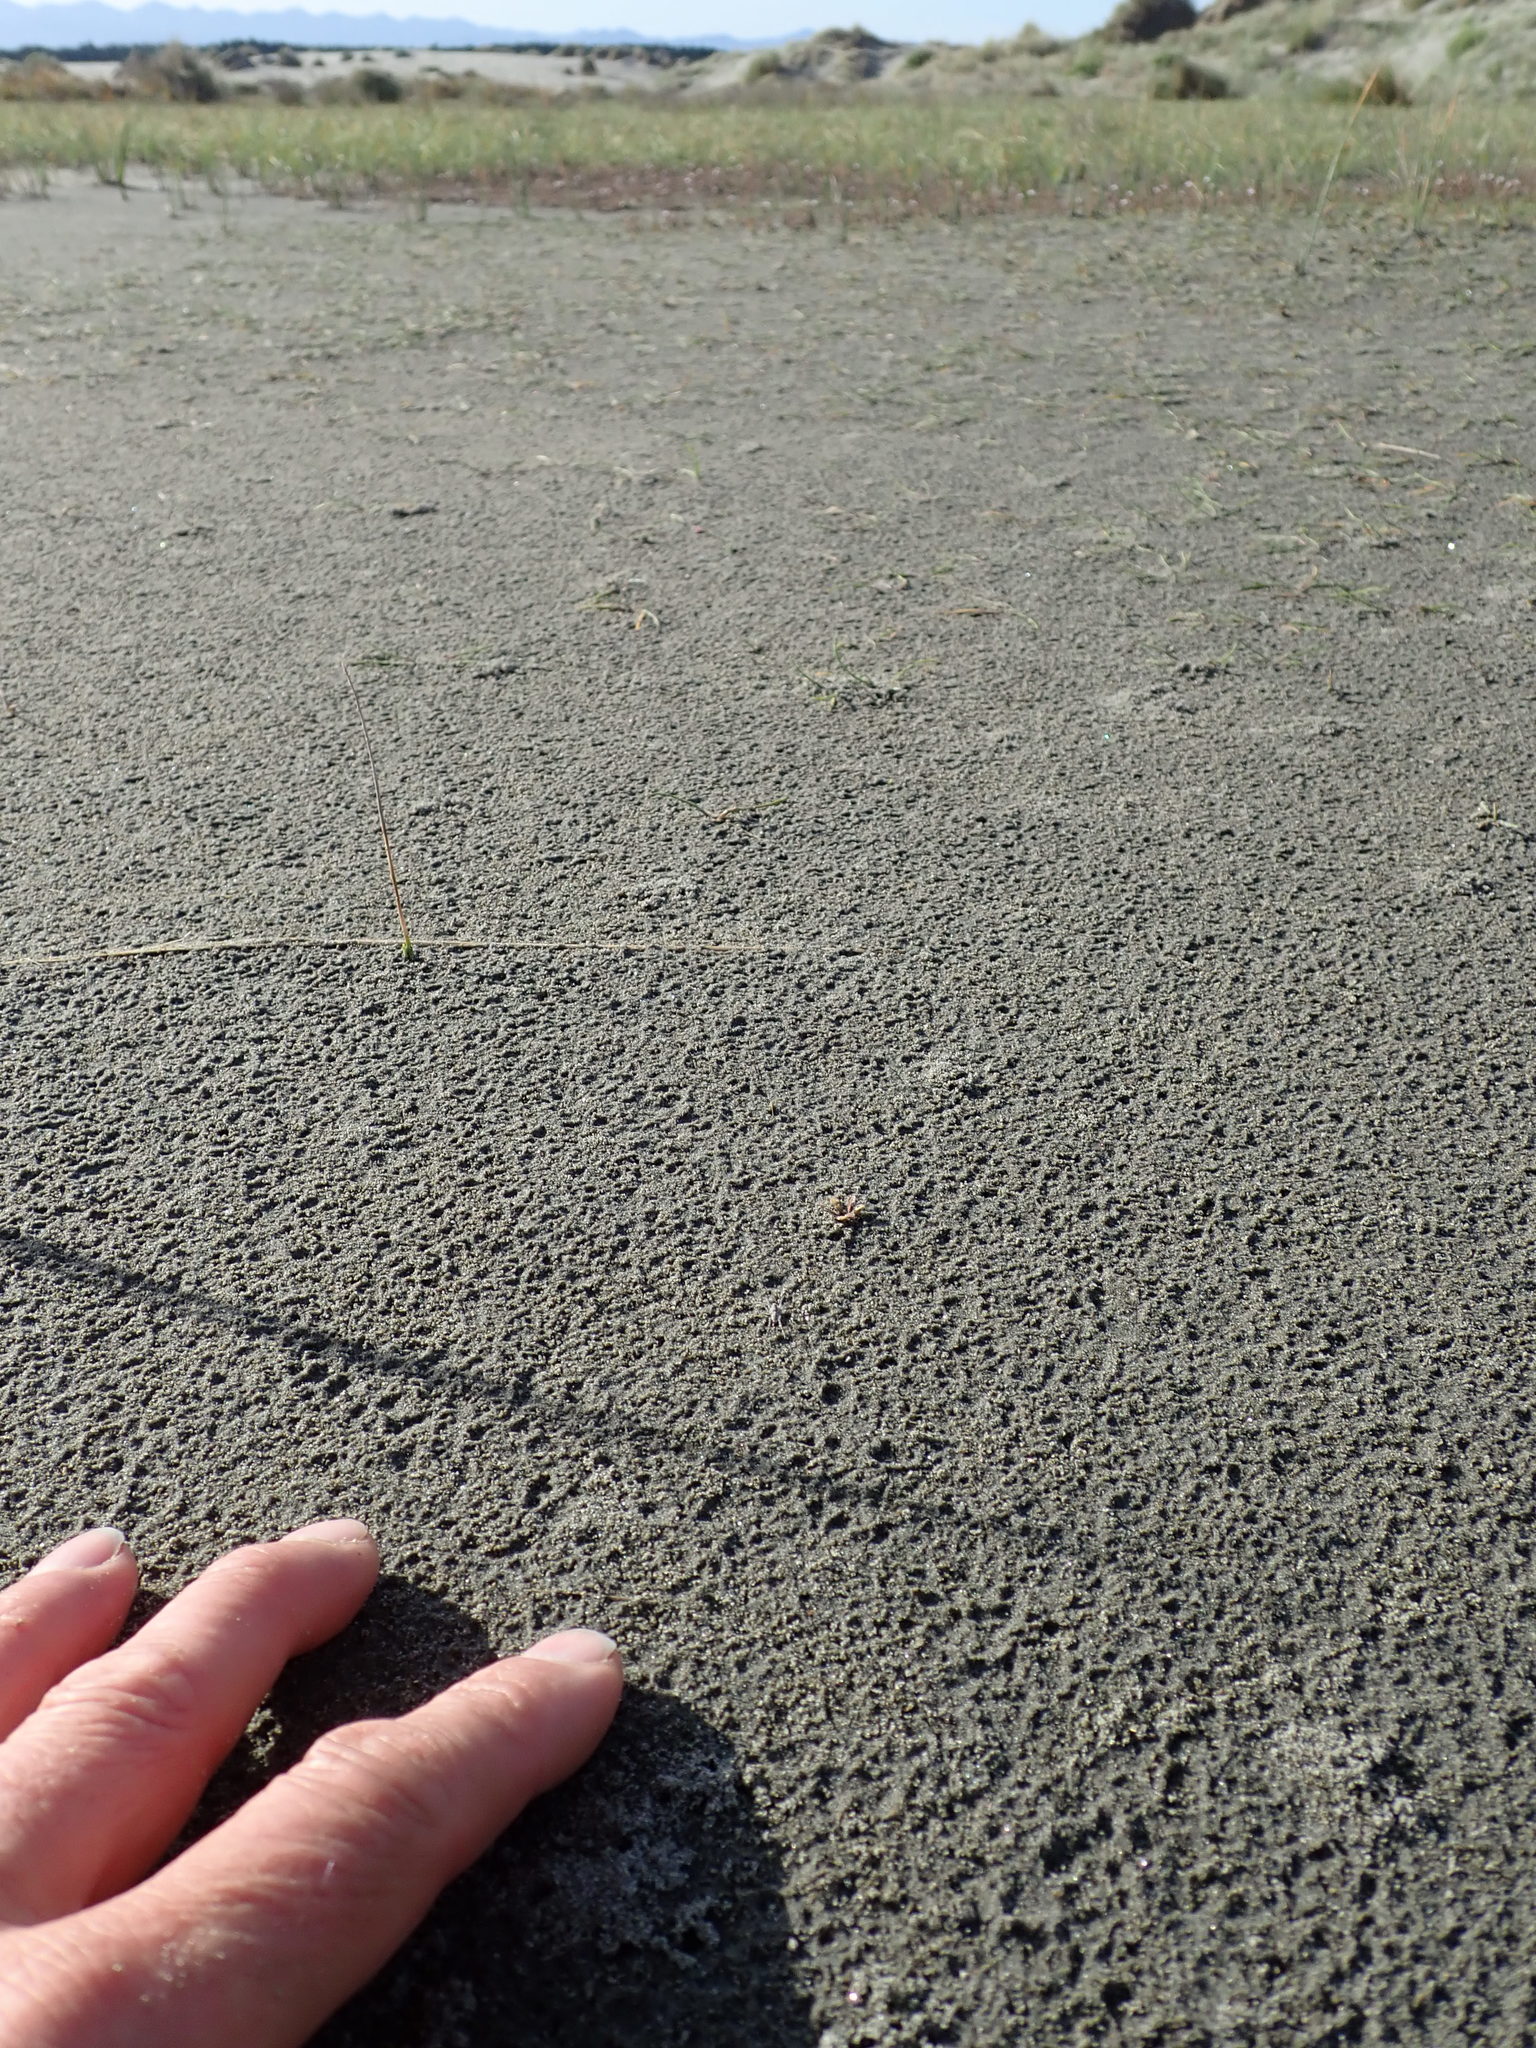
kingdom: Animalia
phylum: Arthropoda
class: Arachnida
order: Araneae
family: Lycosidae
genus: Anoteropsis
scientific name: Anoteropsis litoralis
